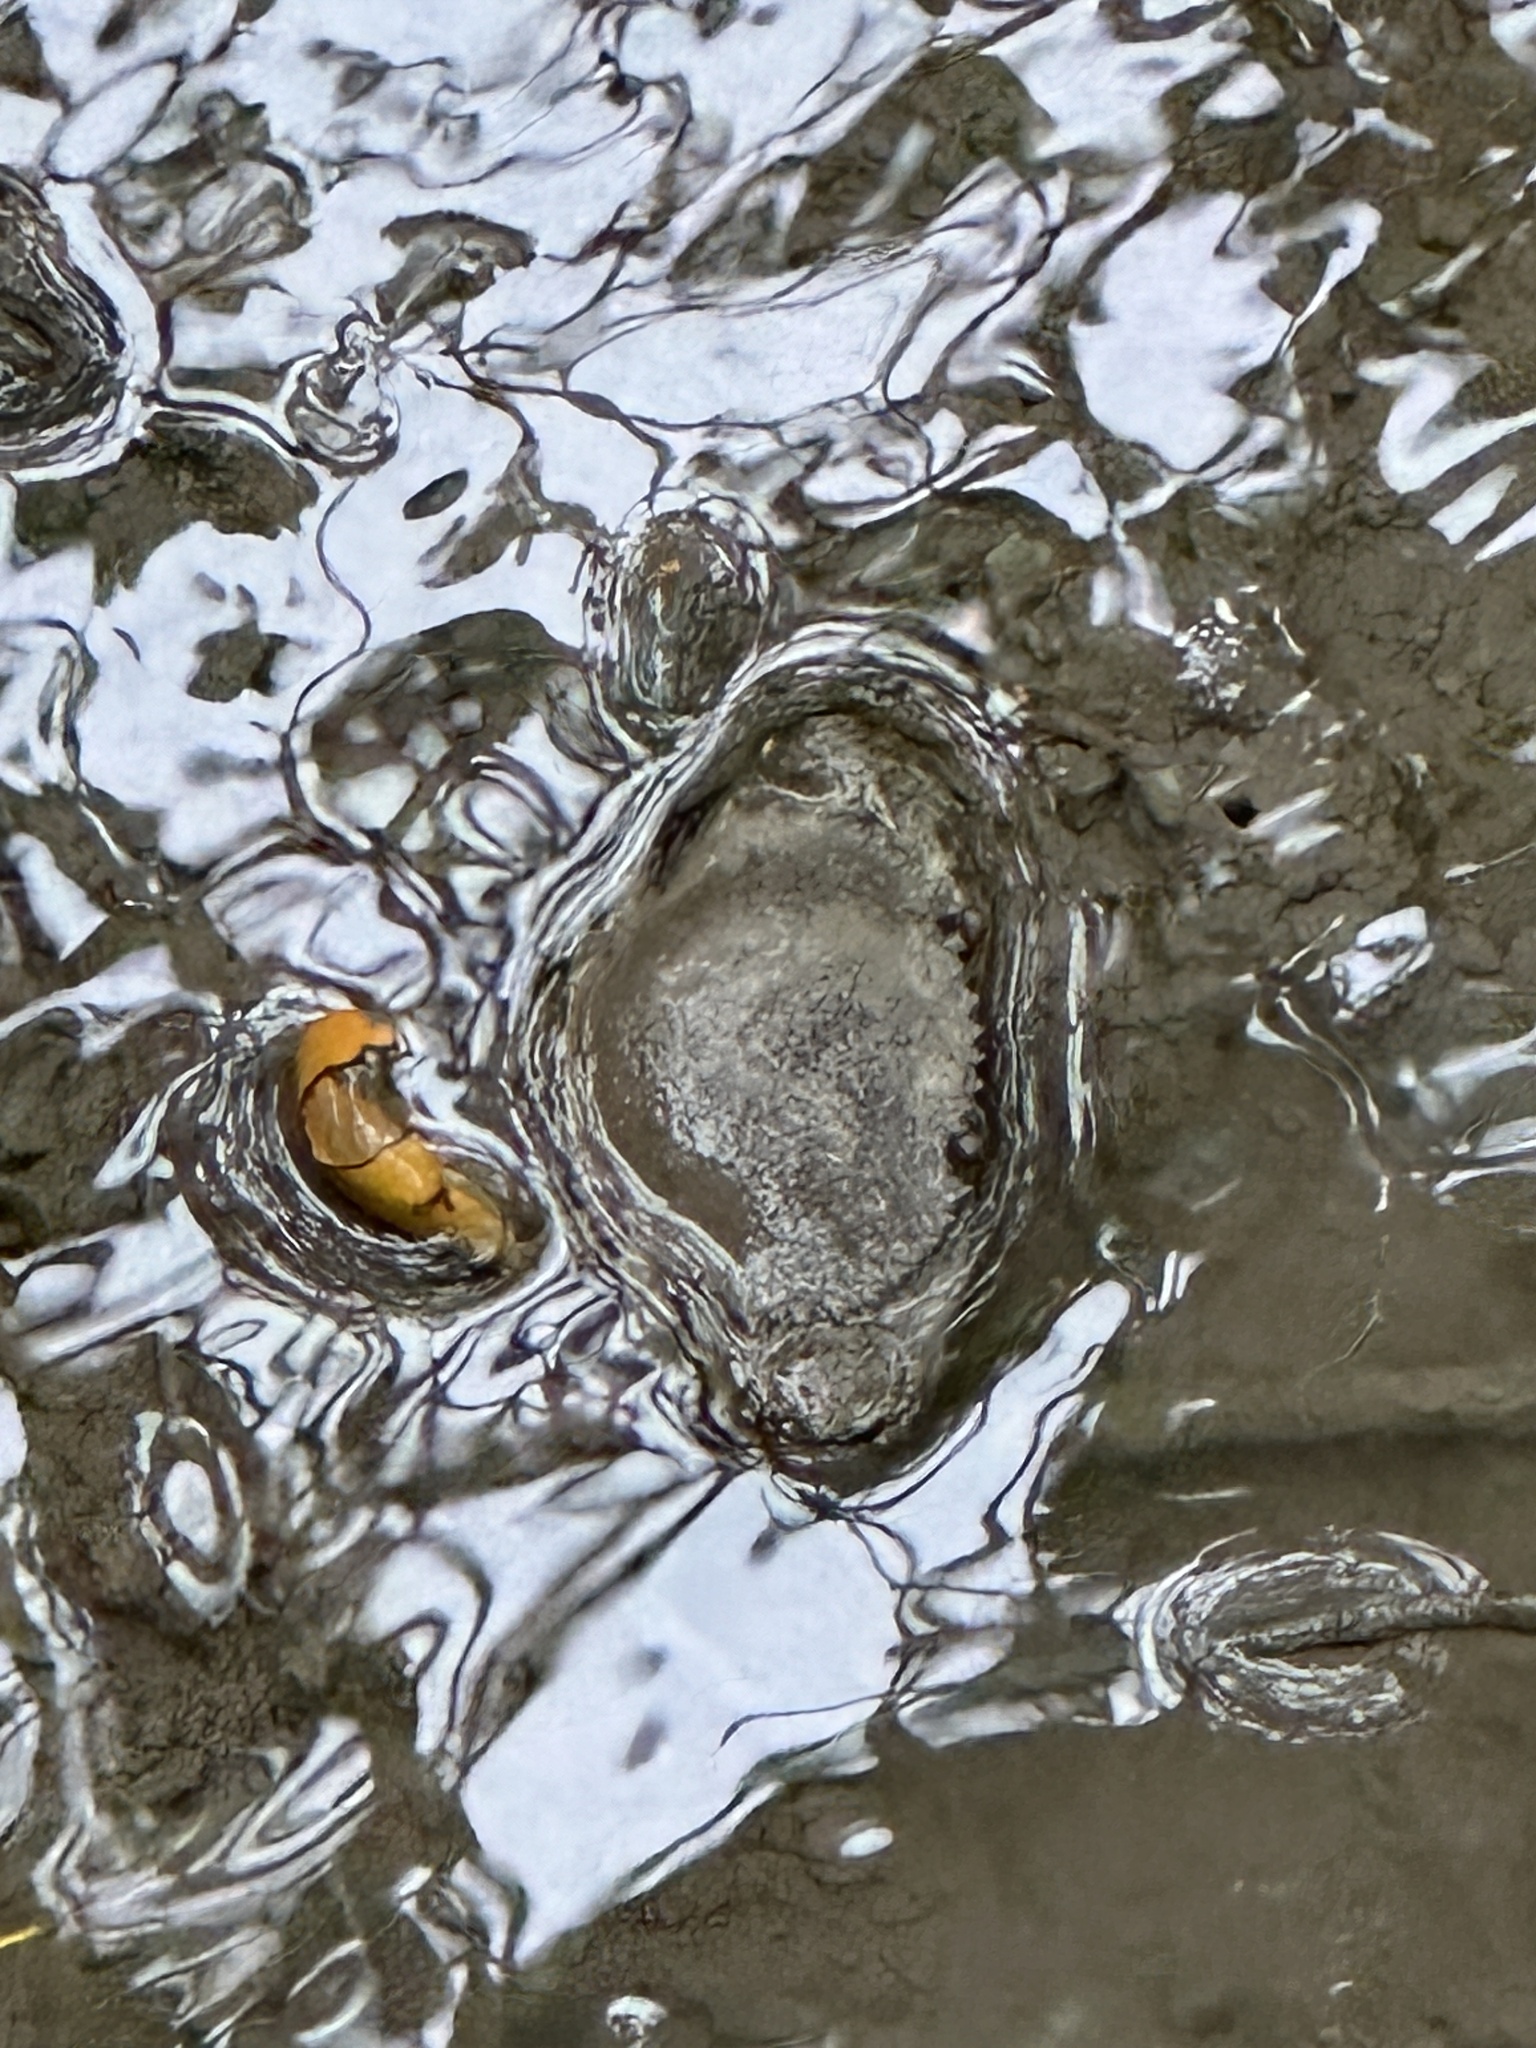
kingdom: Animalia
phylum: Arthropoda
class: Malacostraca
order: Decapoda
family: Portunidae
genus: Scylla
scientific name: Scylla serrata
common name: Giant mud crab
